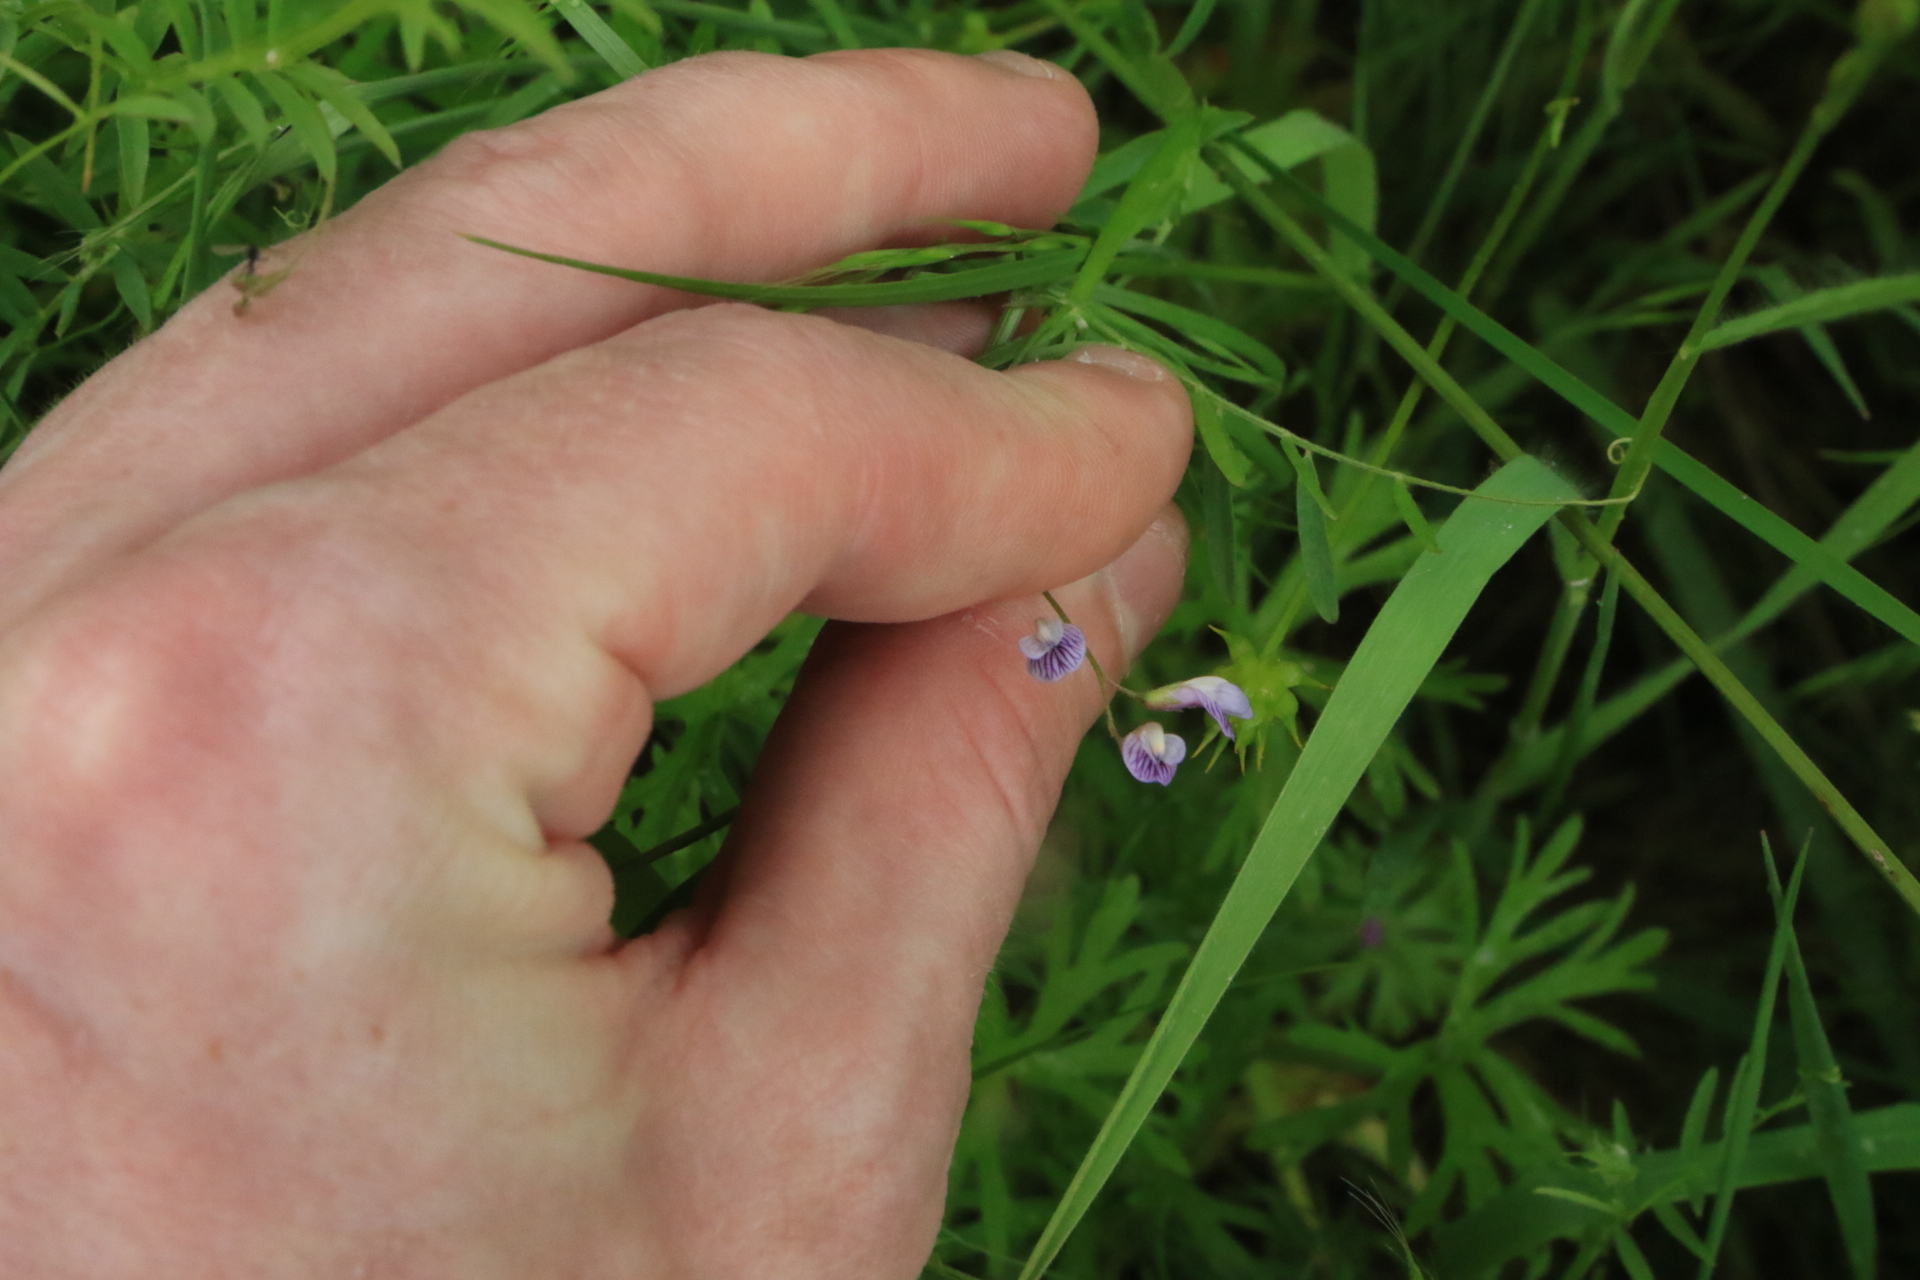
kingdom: Plantae
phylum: Tracheophyta
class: Magnoliopsida
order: Fabales
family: Fabaceae
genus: Vicia
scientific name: Vicia tetrasperma
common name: Smooth tare
